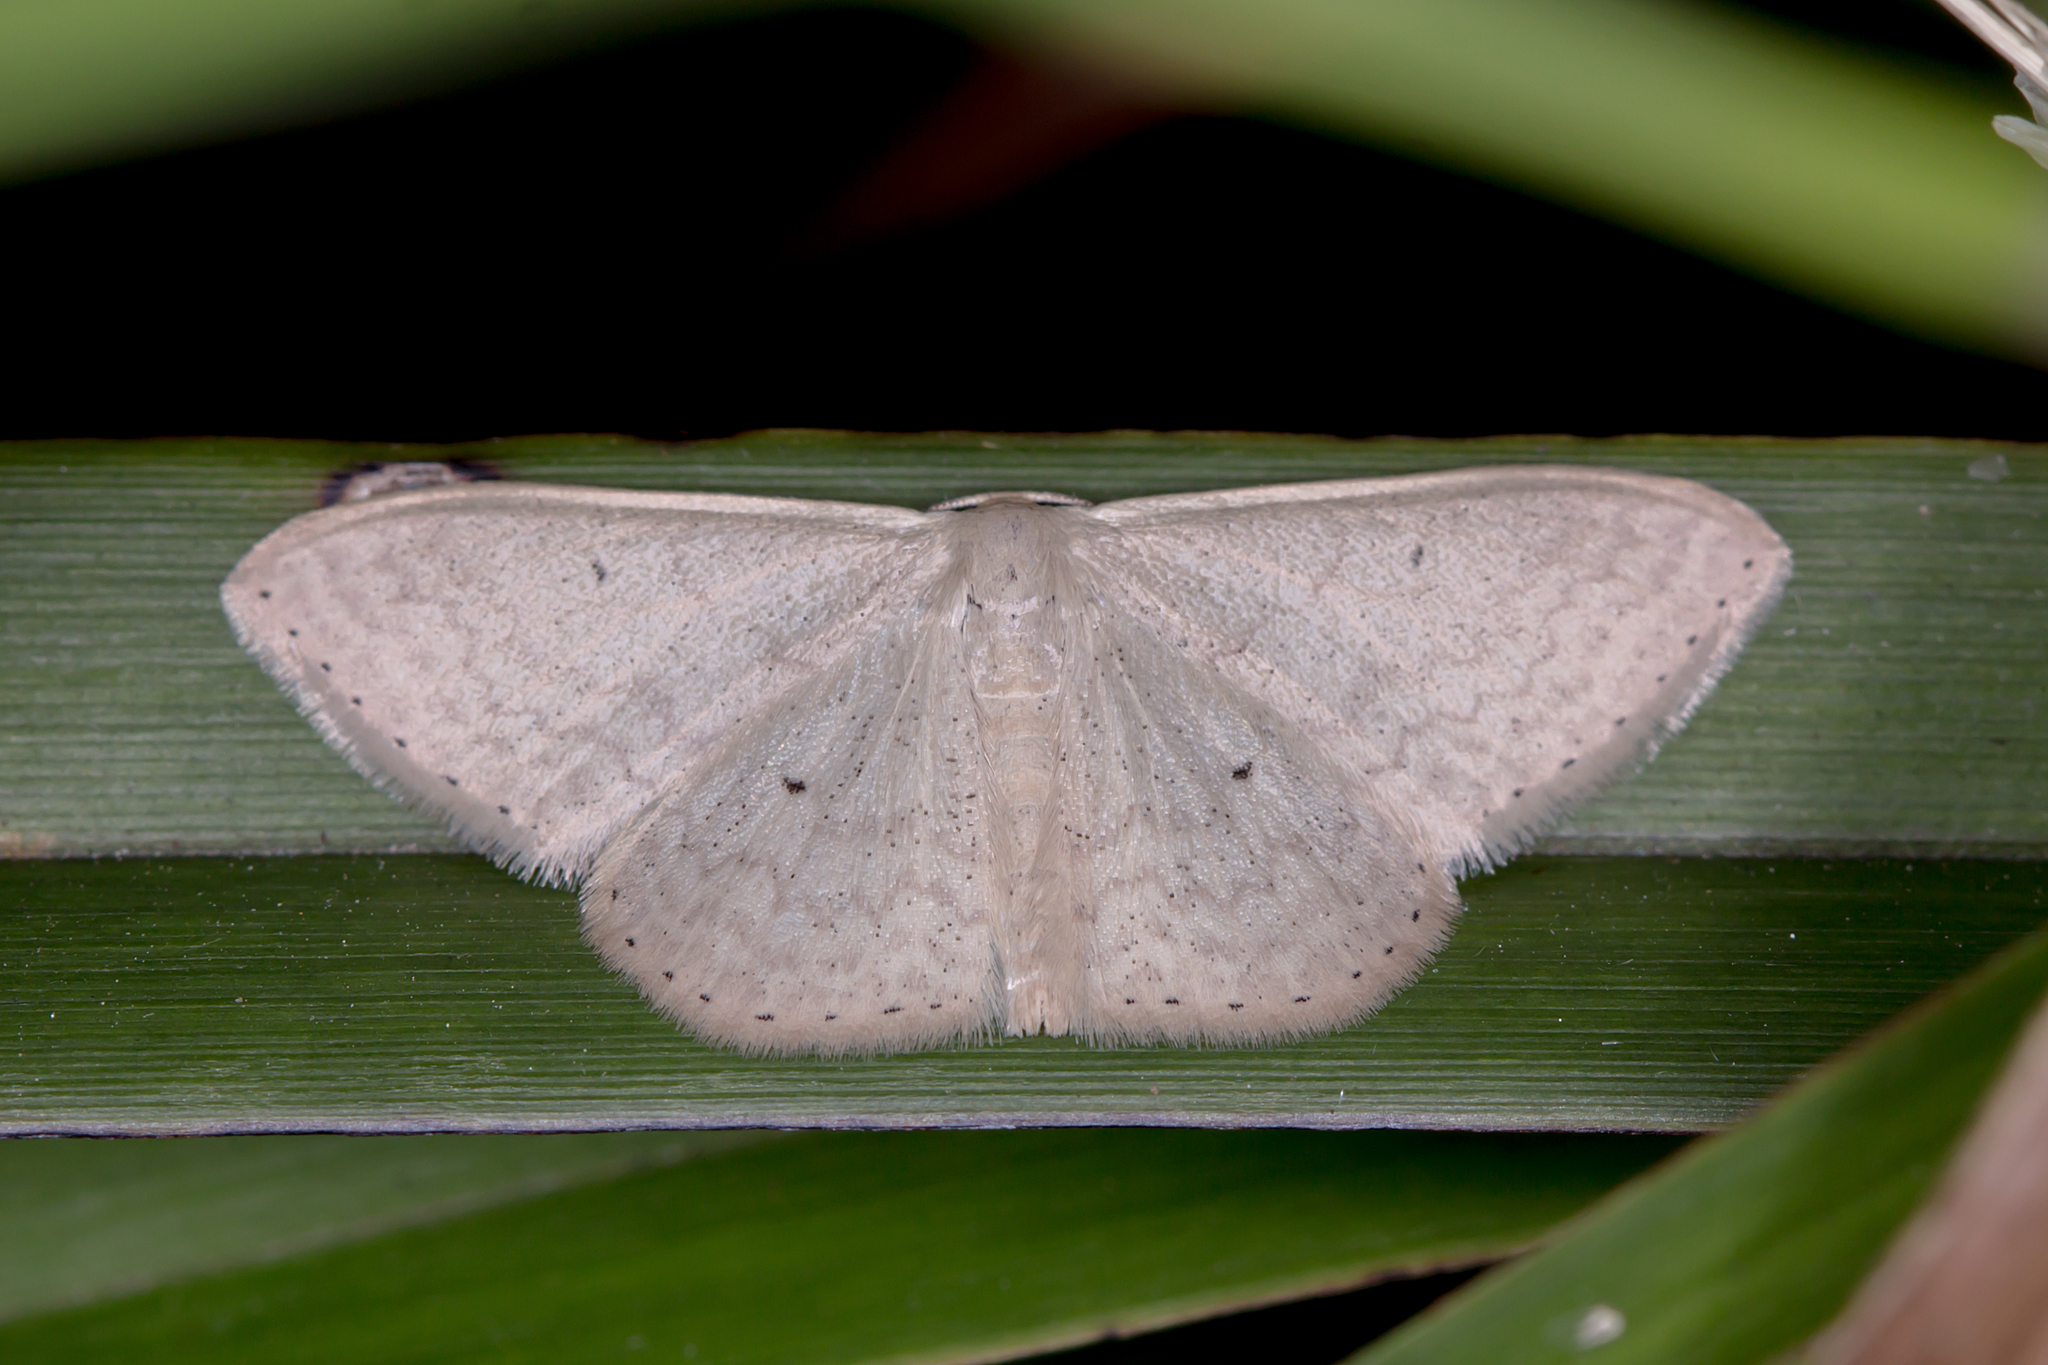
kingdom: Animalia
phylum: Arthropoda
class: Insecta
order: Lepidoptera
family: Geometridae
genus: Scopula
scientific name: Scopula optivata
